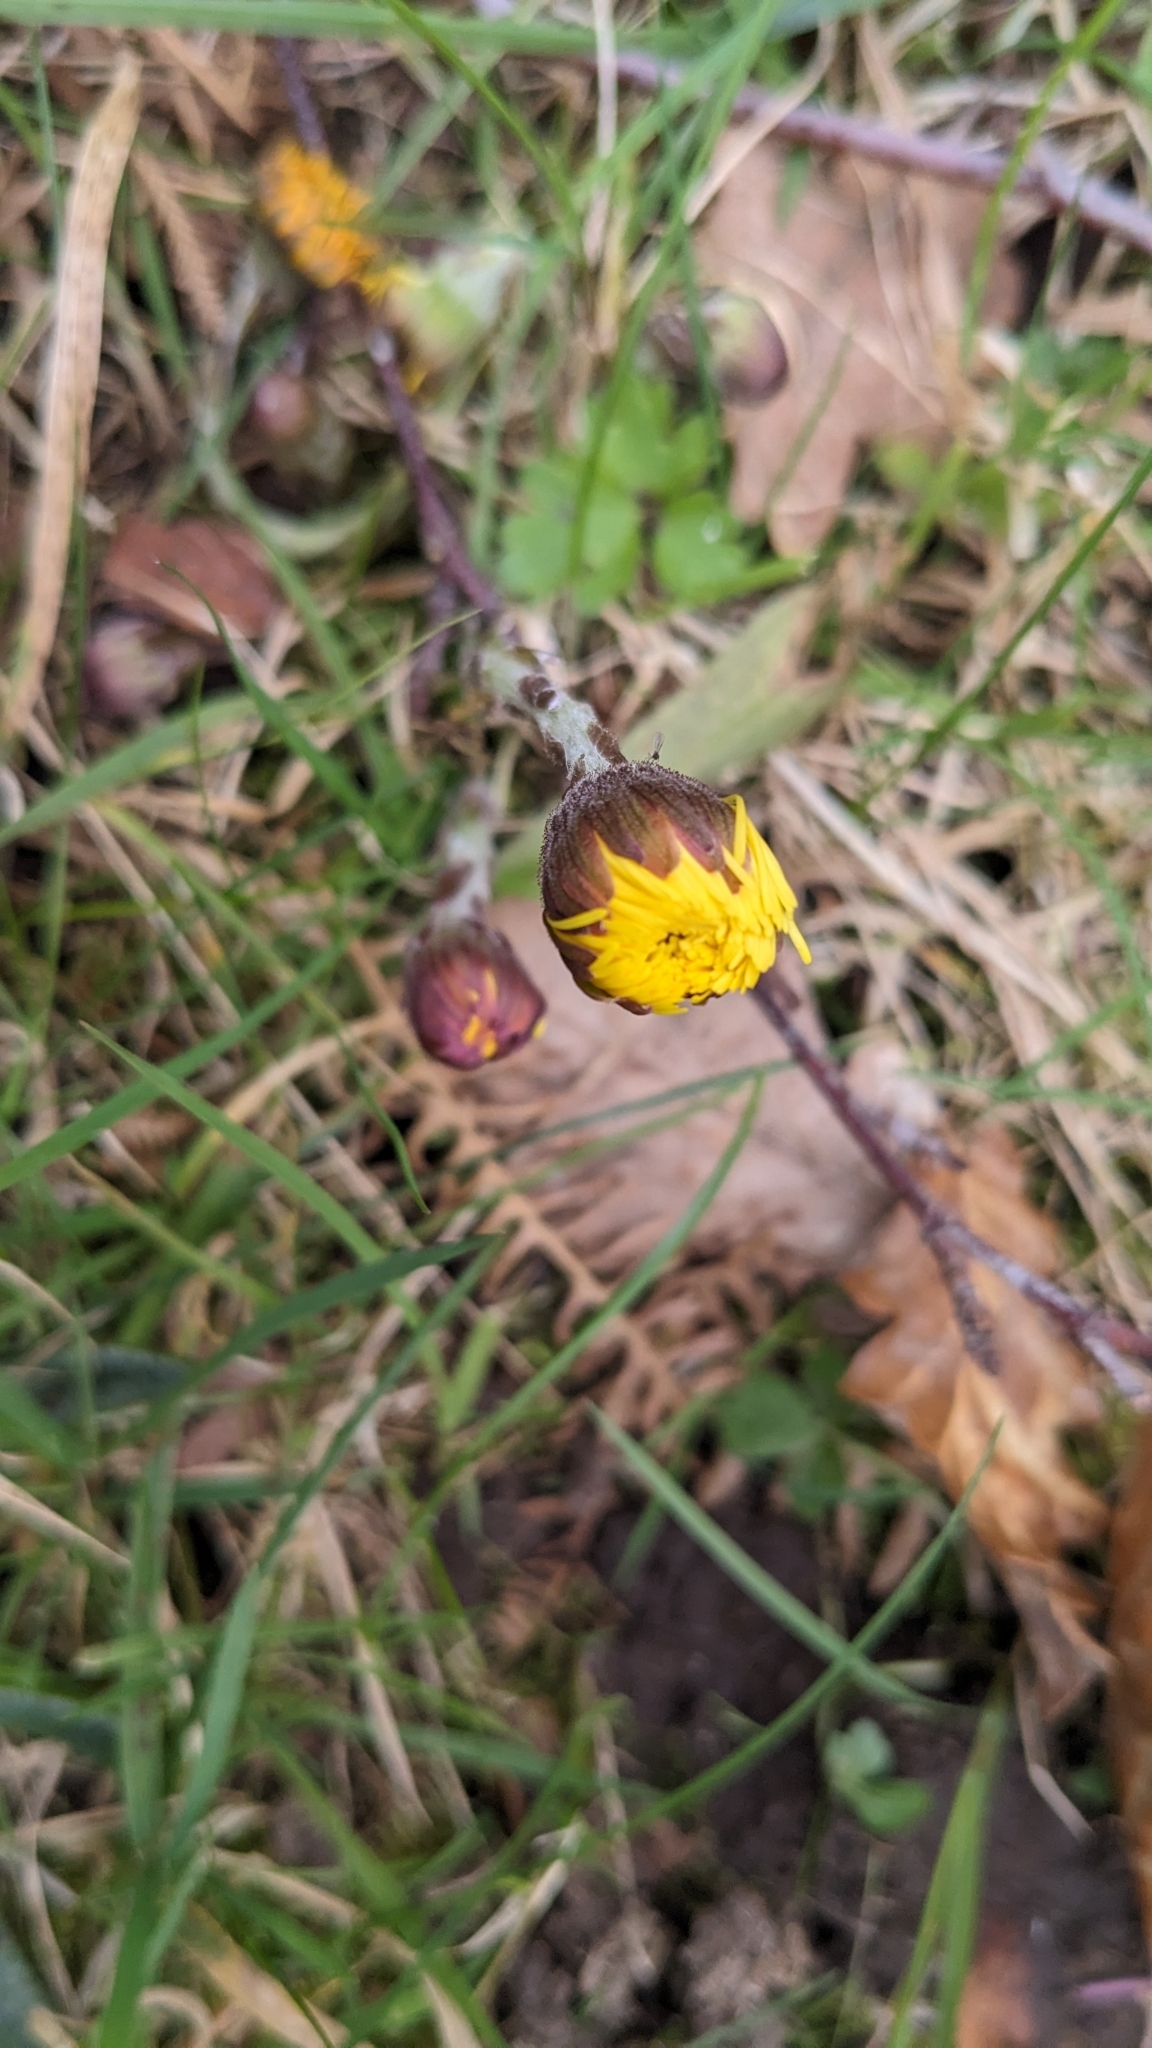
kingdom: Plantae
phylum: Tracheophyta
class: Magnoliopsida
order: Asterales
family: Asteraceae
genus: Tussilago
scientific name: Tussilago farfara
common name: Coltsfoot
